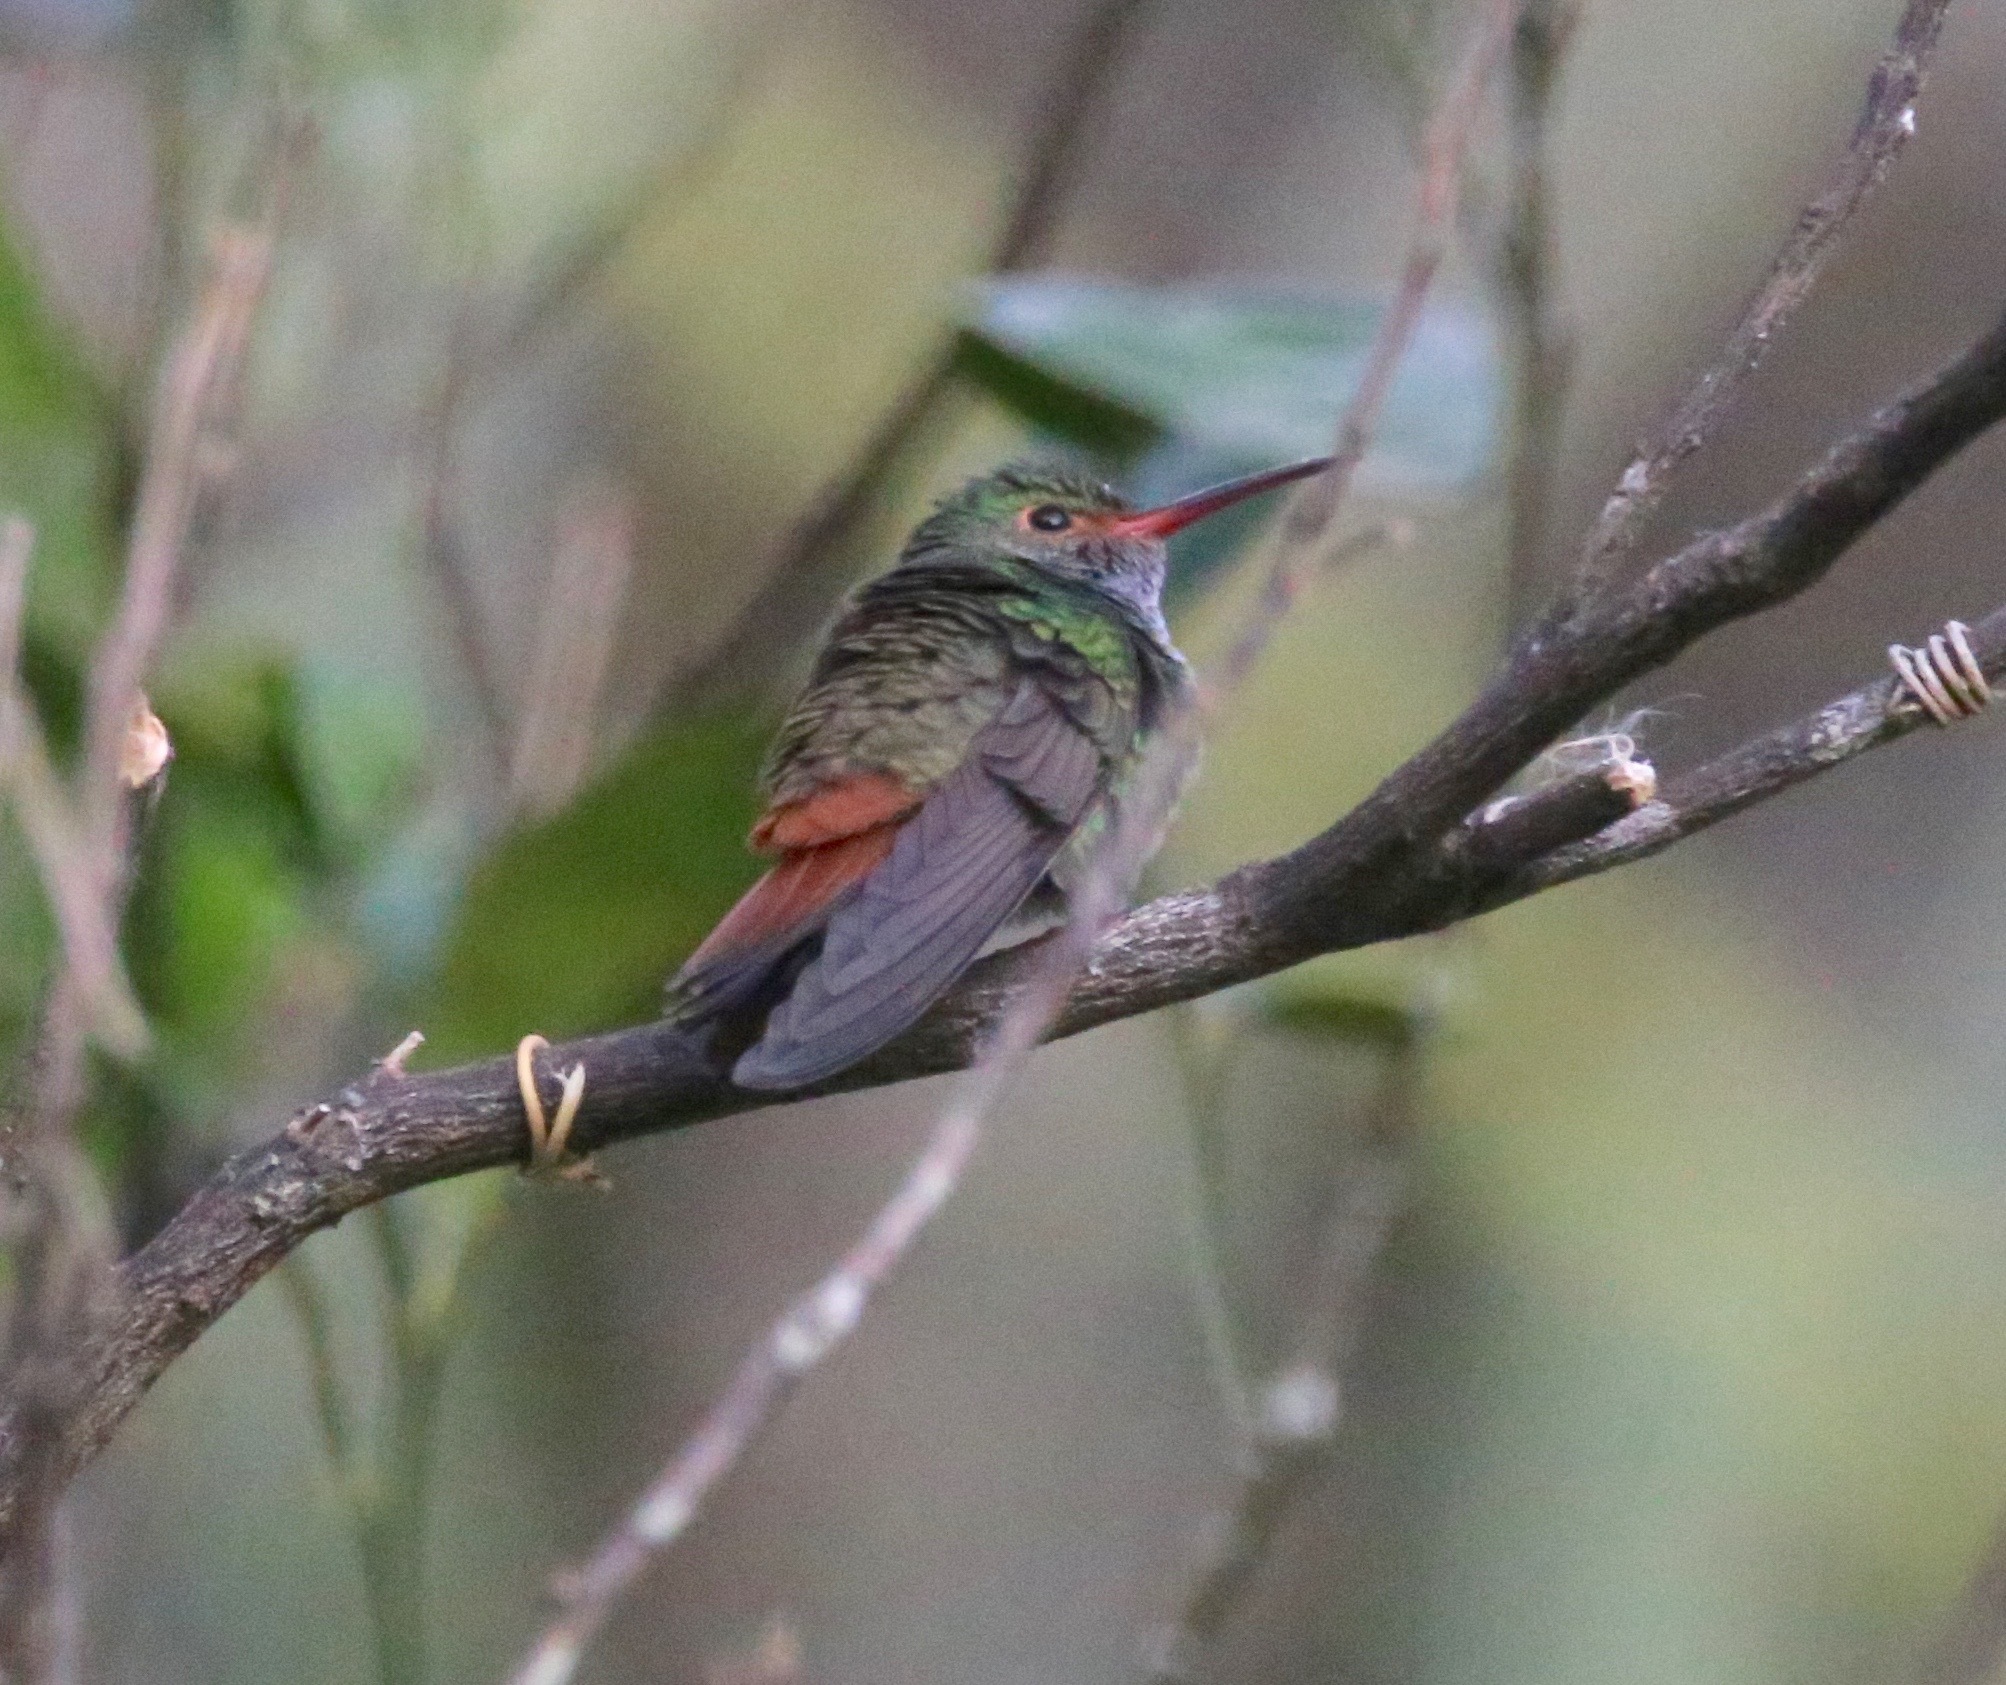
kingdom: Animalia
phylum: Chordata
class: Aves
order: Apodiformes
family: Trochilidae
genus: Amazilia
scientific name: Amazilia tzacatl
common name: Rufous-tailed hummingbird
